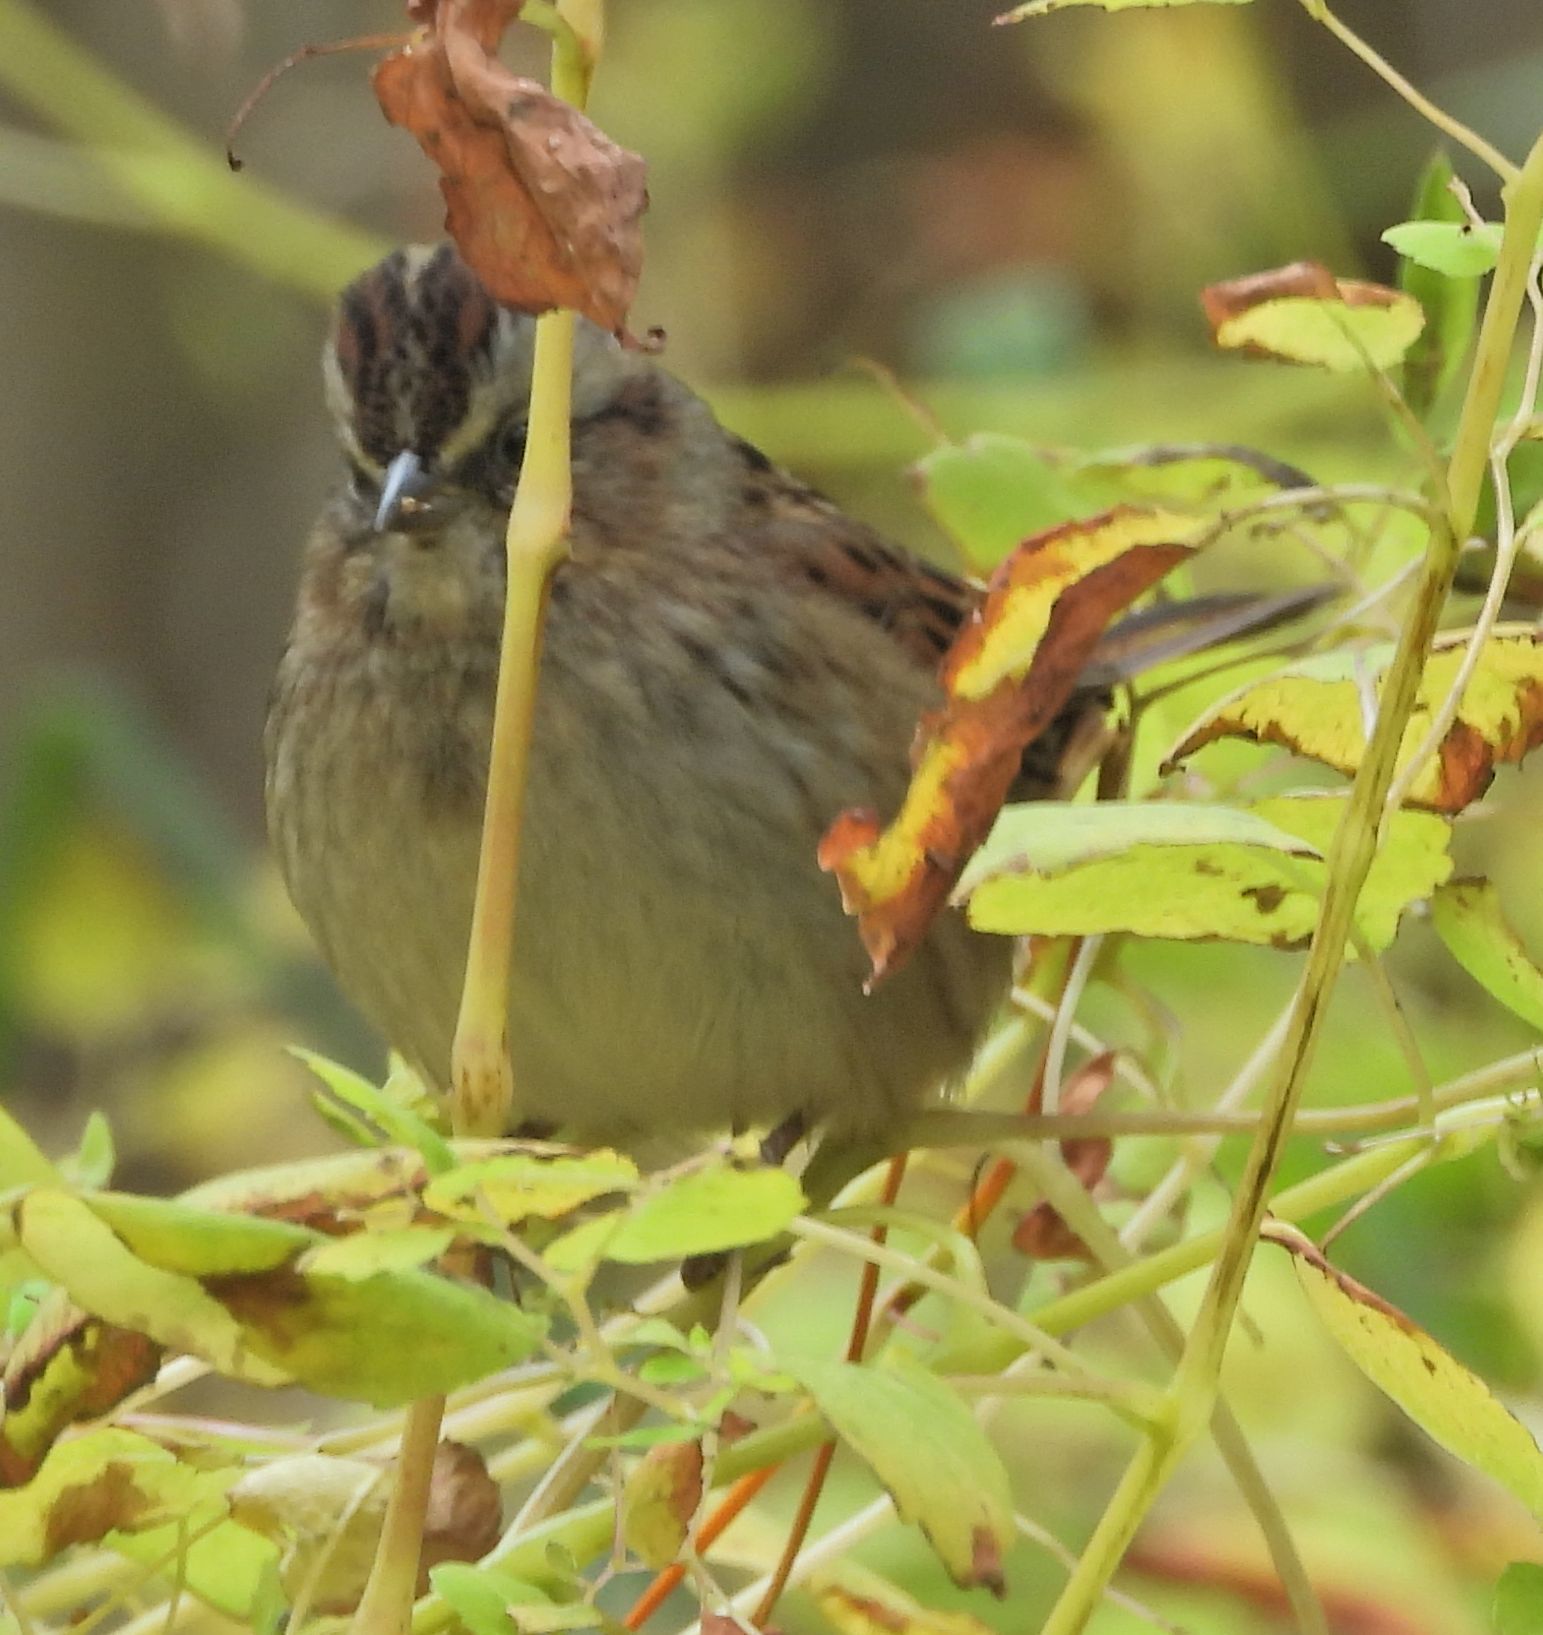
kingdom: Animalia
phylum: Chordata
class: Aves
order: Passeriformes
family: Passerellidae
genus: Melospiza
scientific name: Melospiza georgiana
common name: Swamp sparrow
